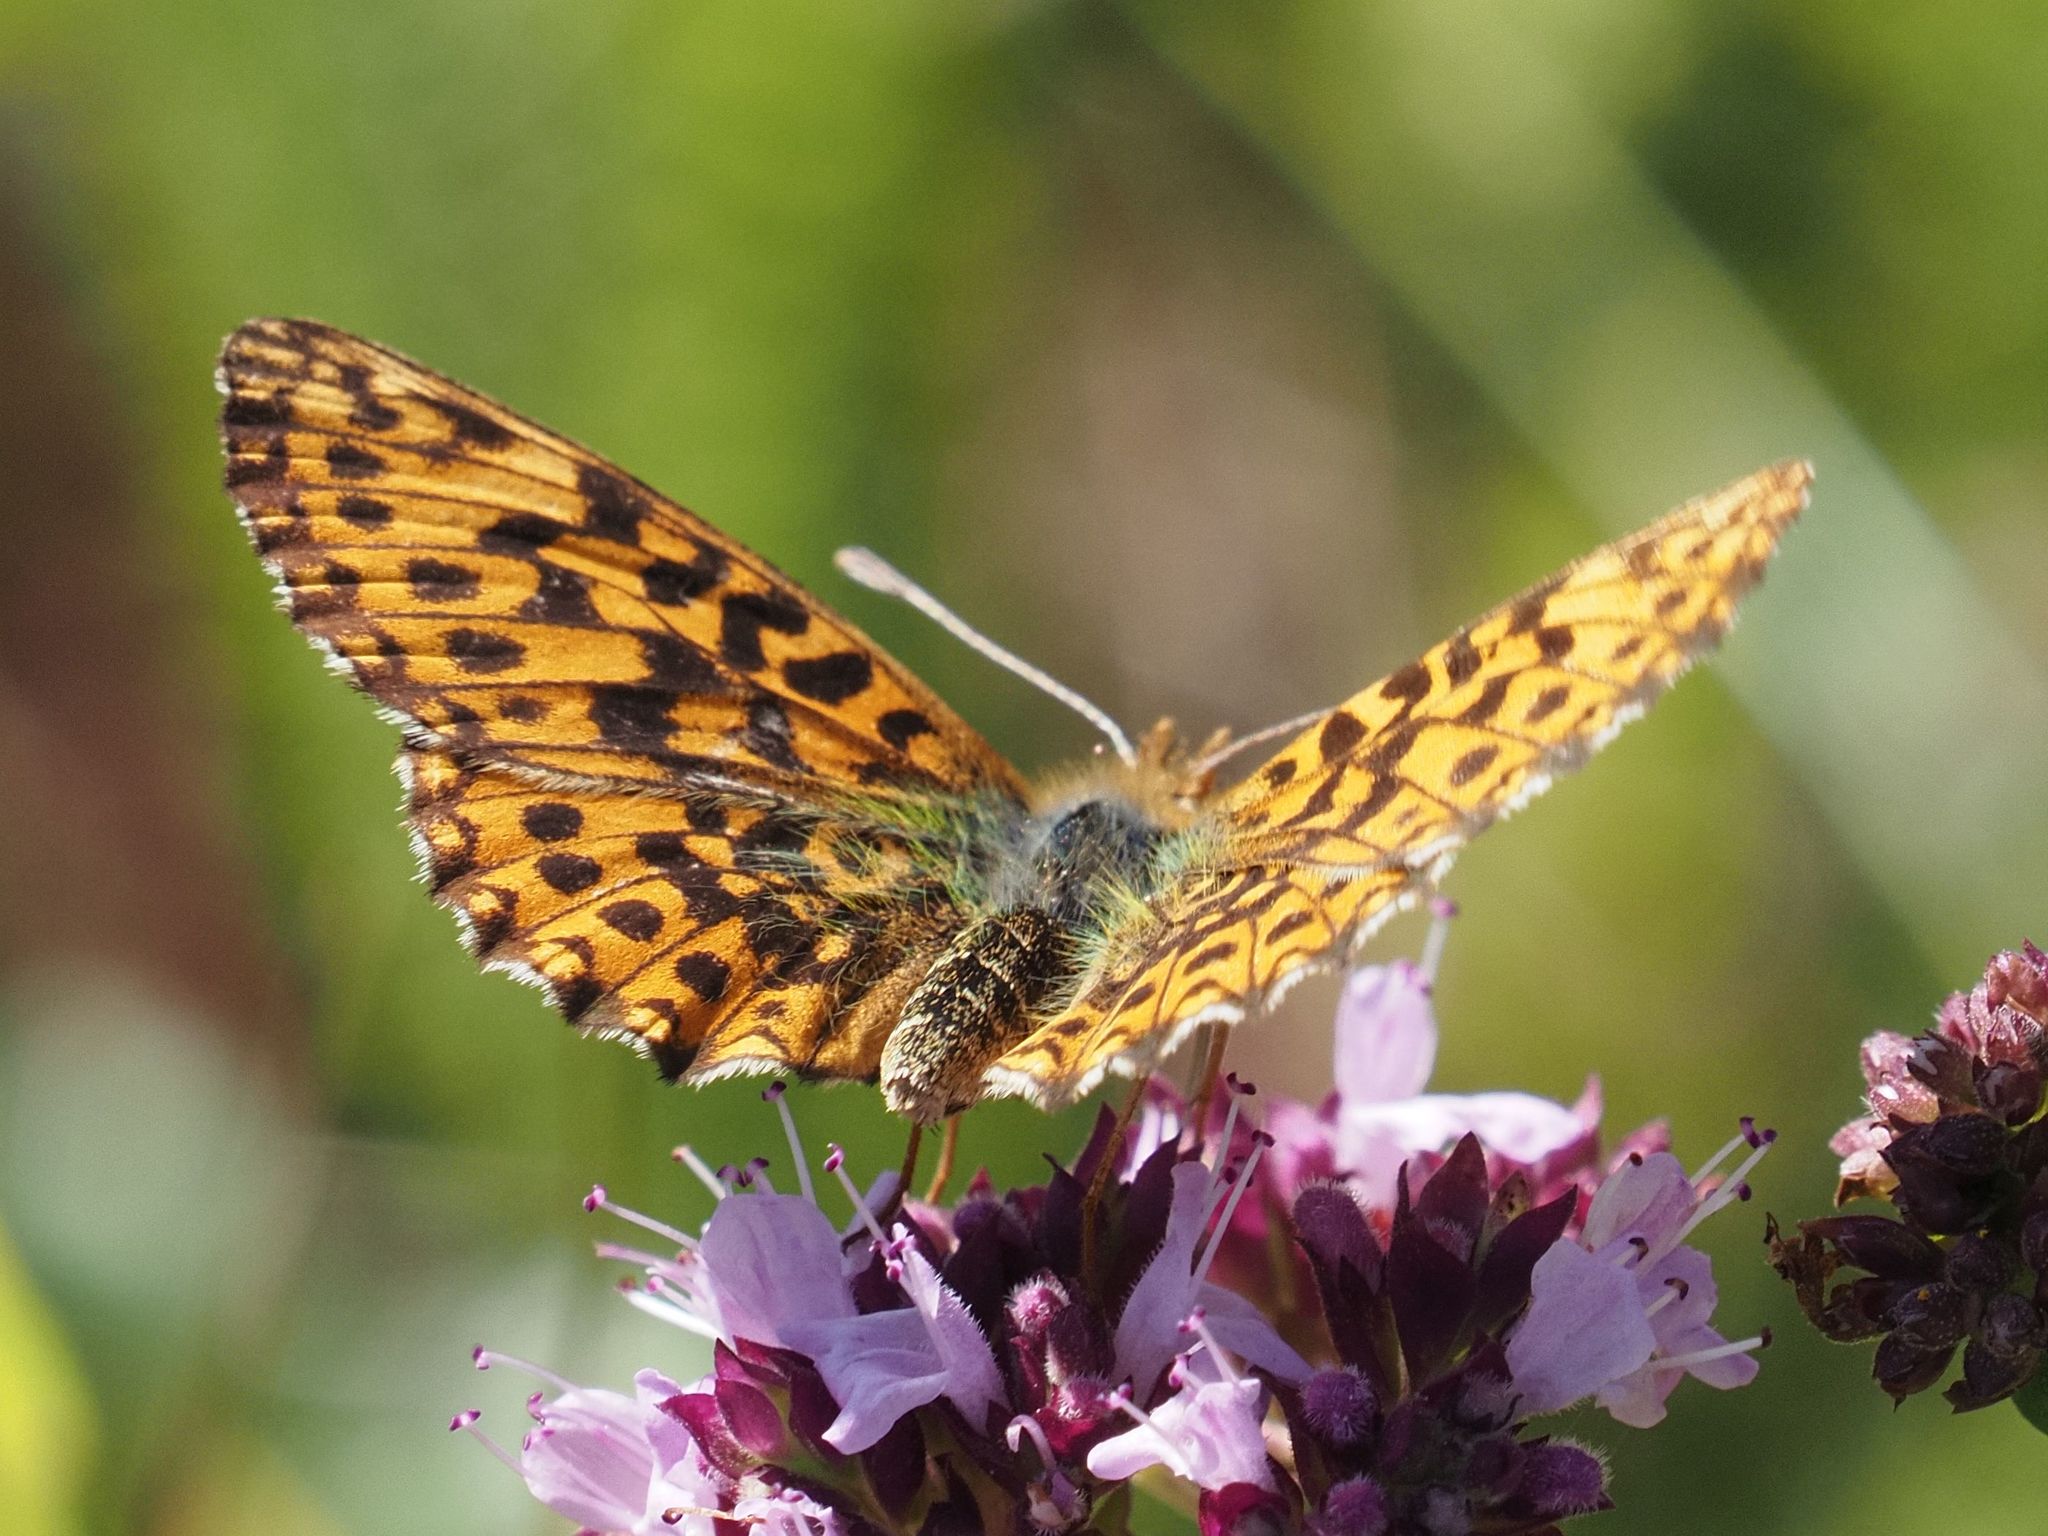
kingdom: Animalia
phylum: Arthropoda
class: Insecta
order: Lepidoptera
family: Nymphalidae
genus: Boloria
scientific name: Boloria dia
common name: Weaver's fritillary
